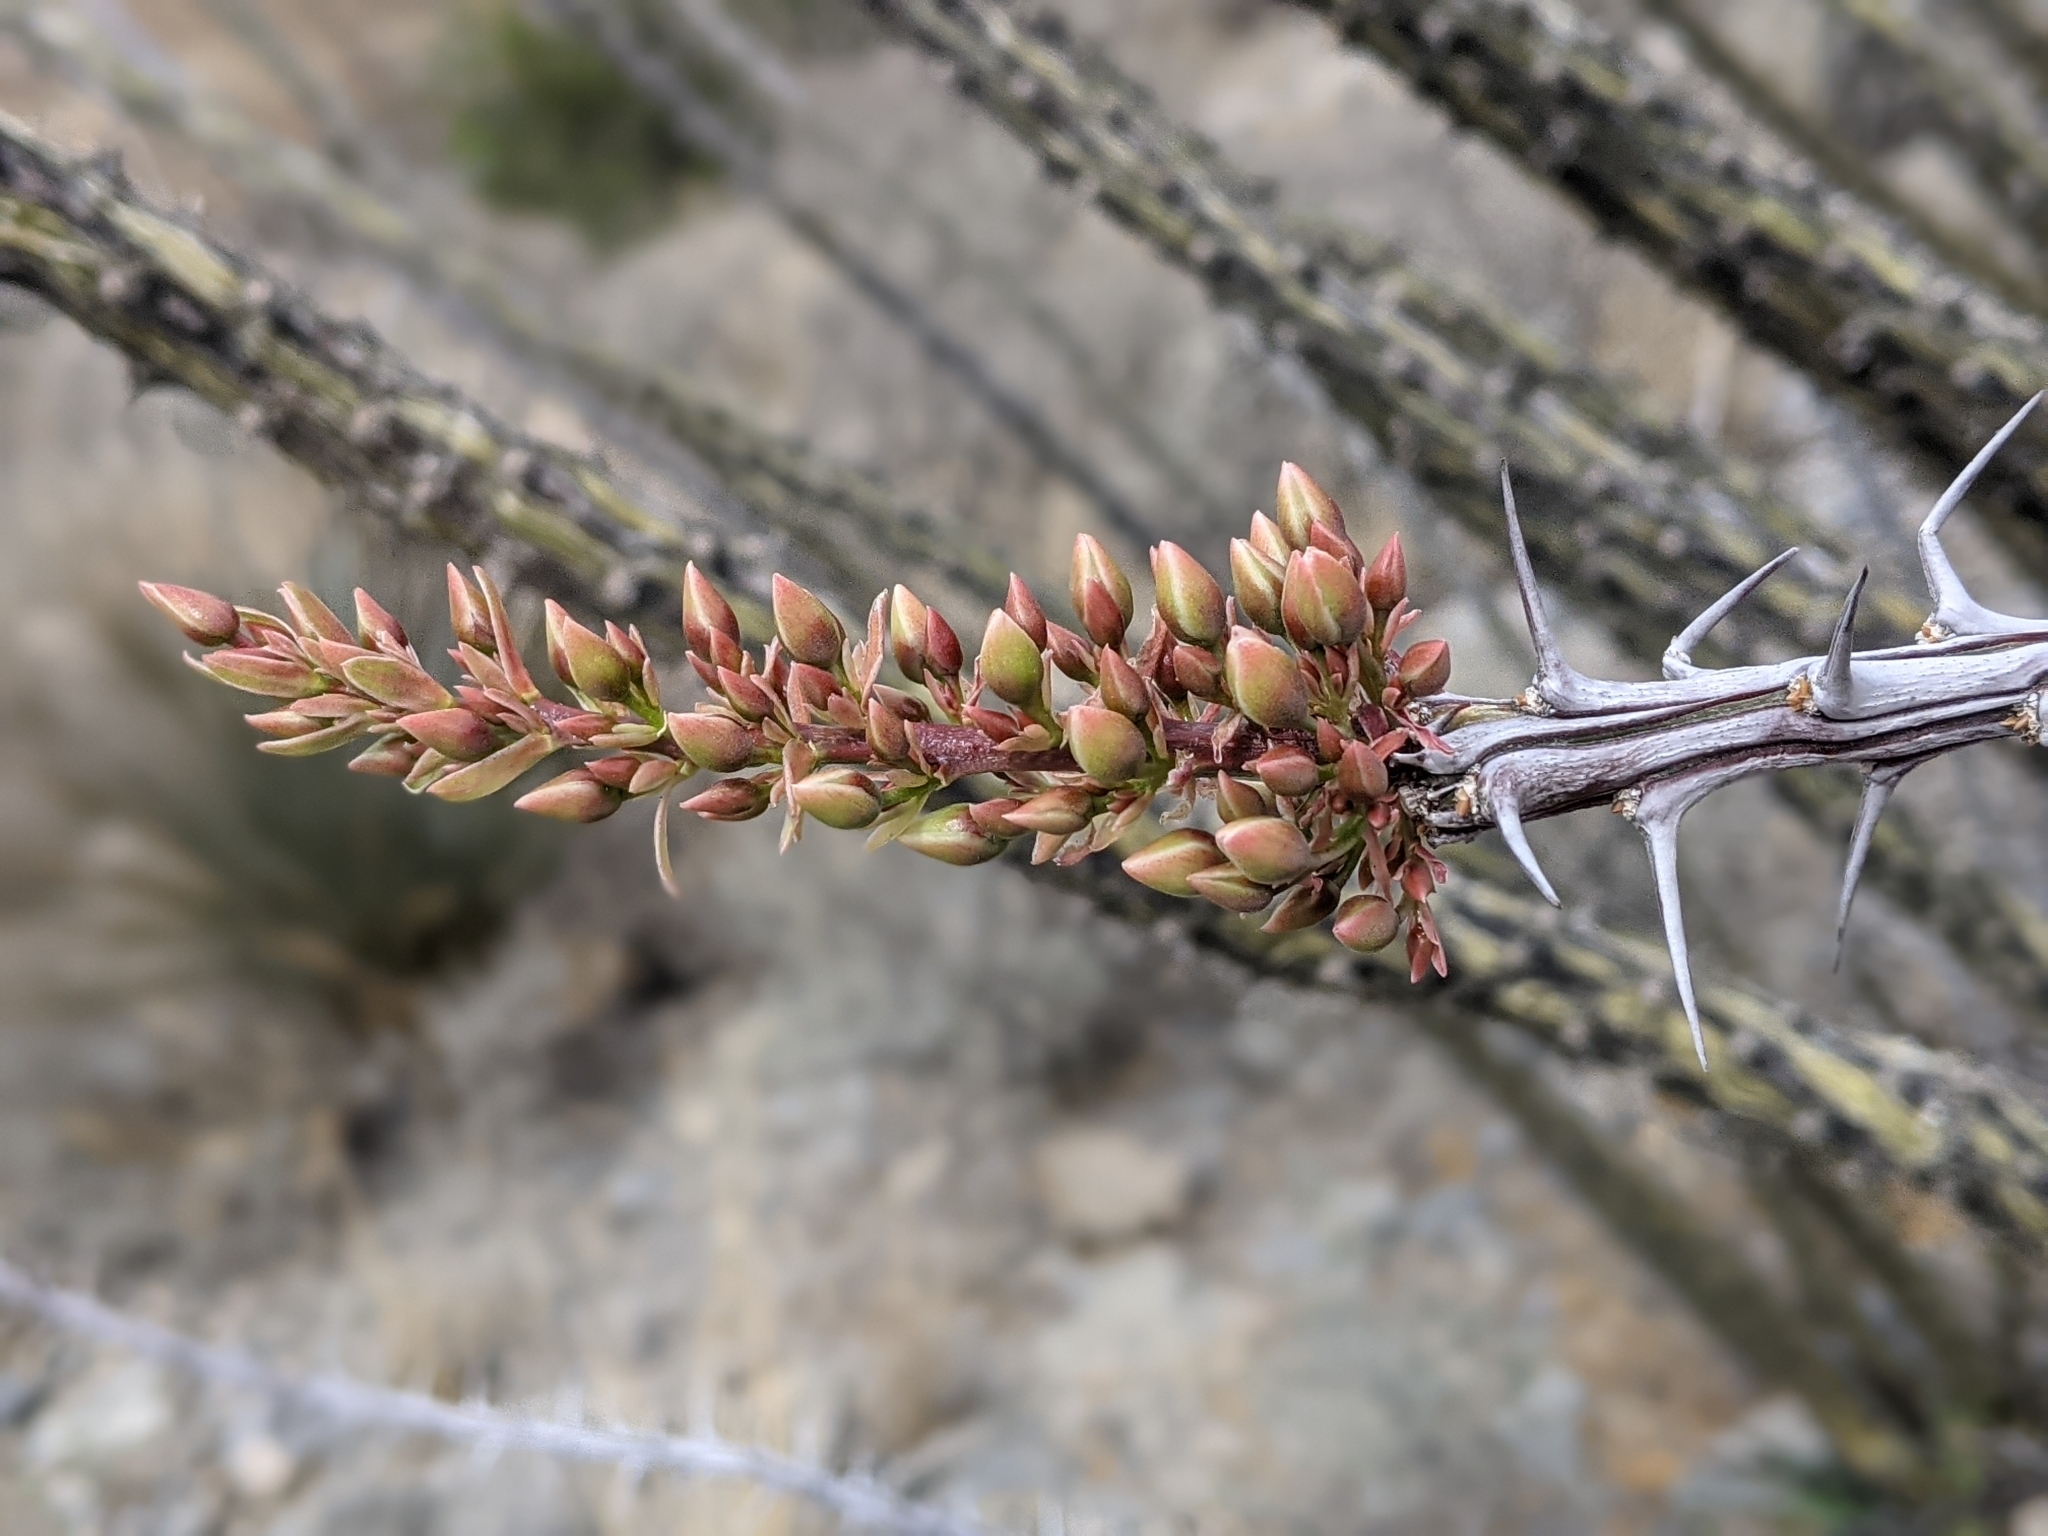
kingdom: Plantae
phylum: Tracheophyta
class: Magnoliopsida
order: Ericales
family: Fouquieriaceae
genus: Fouquieria
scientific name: Fouquieria splendens
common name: Vine-cactus
